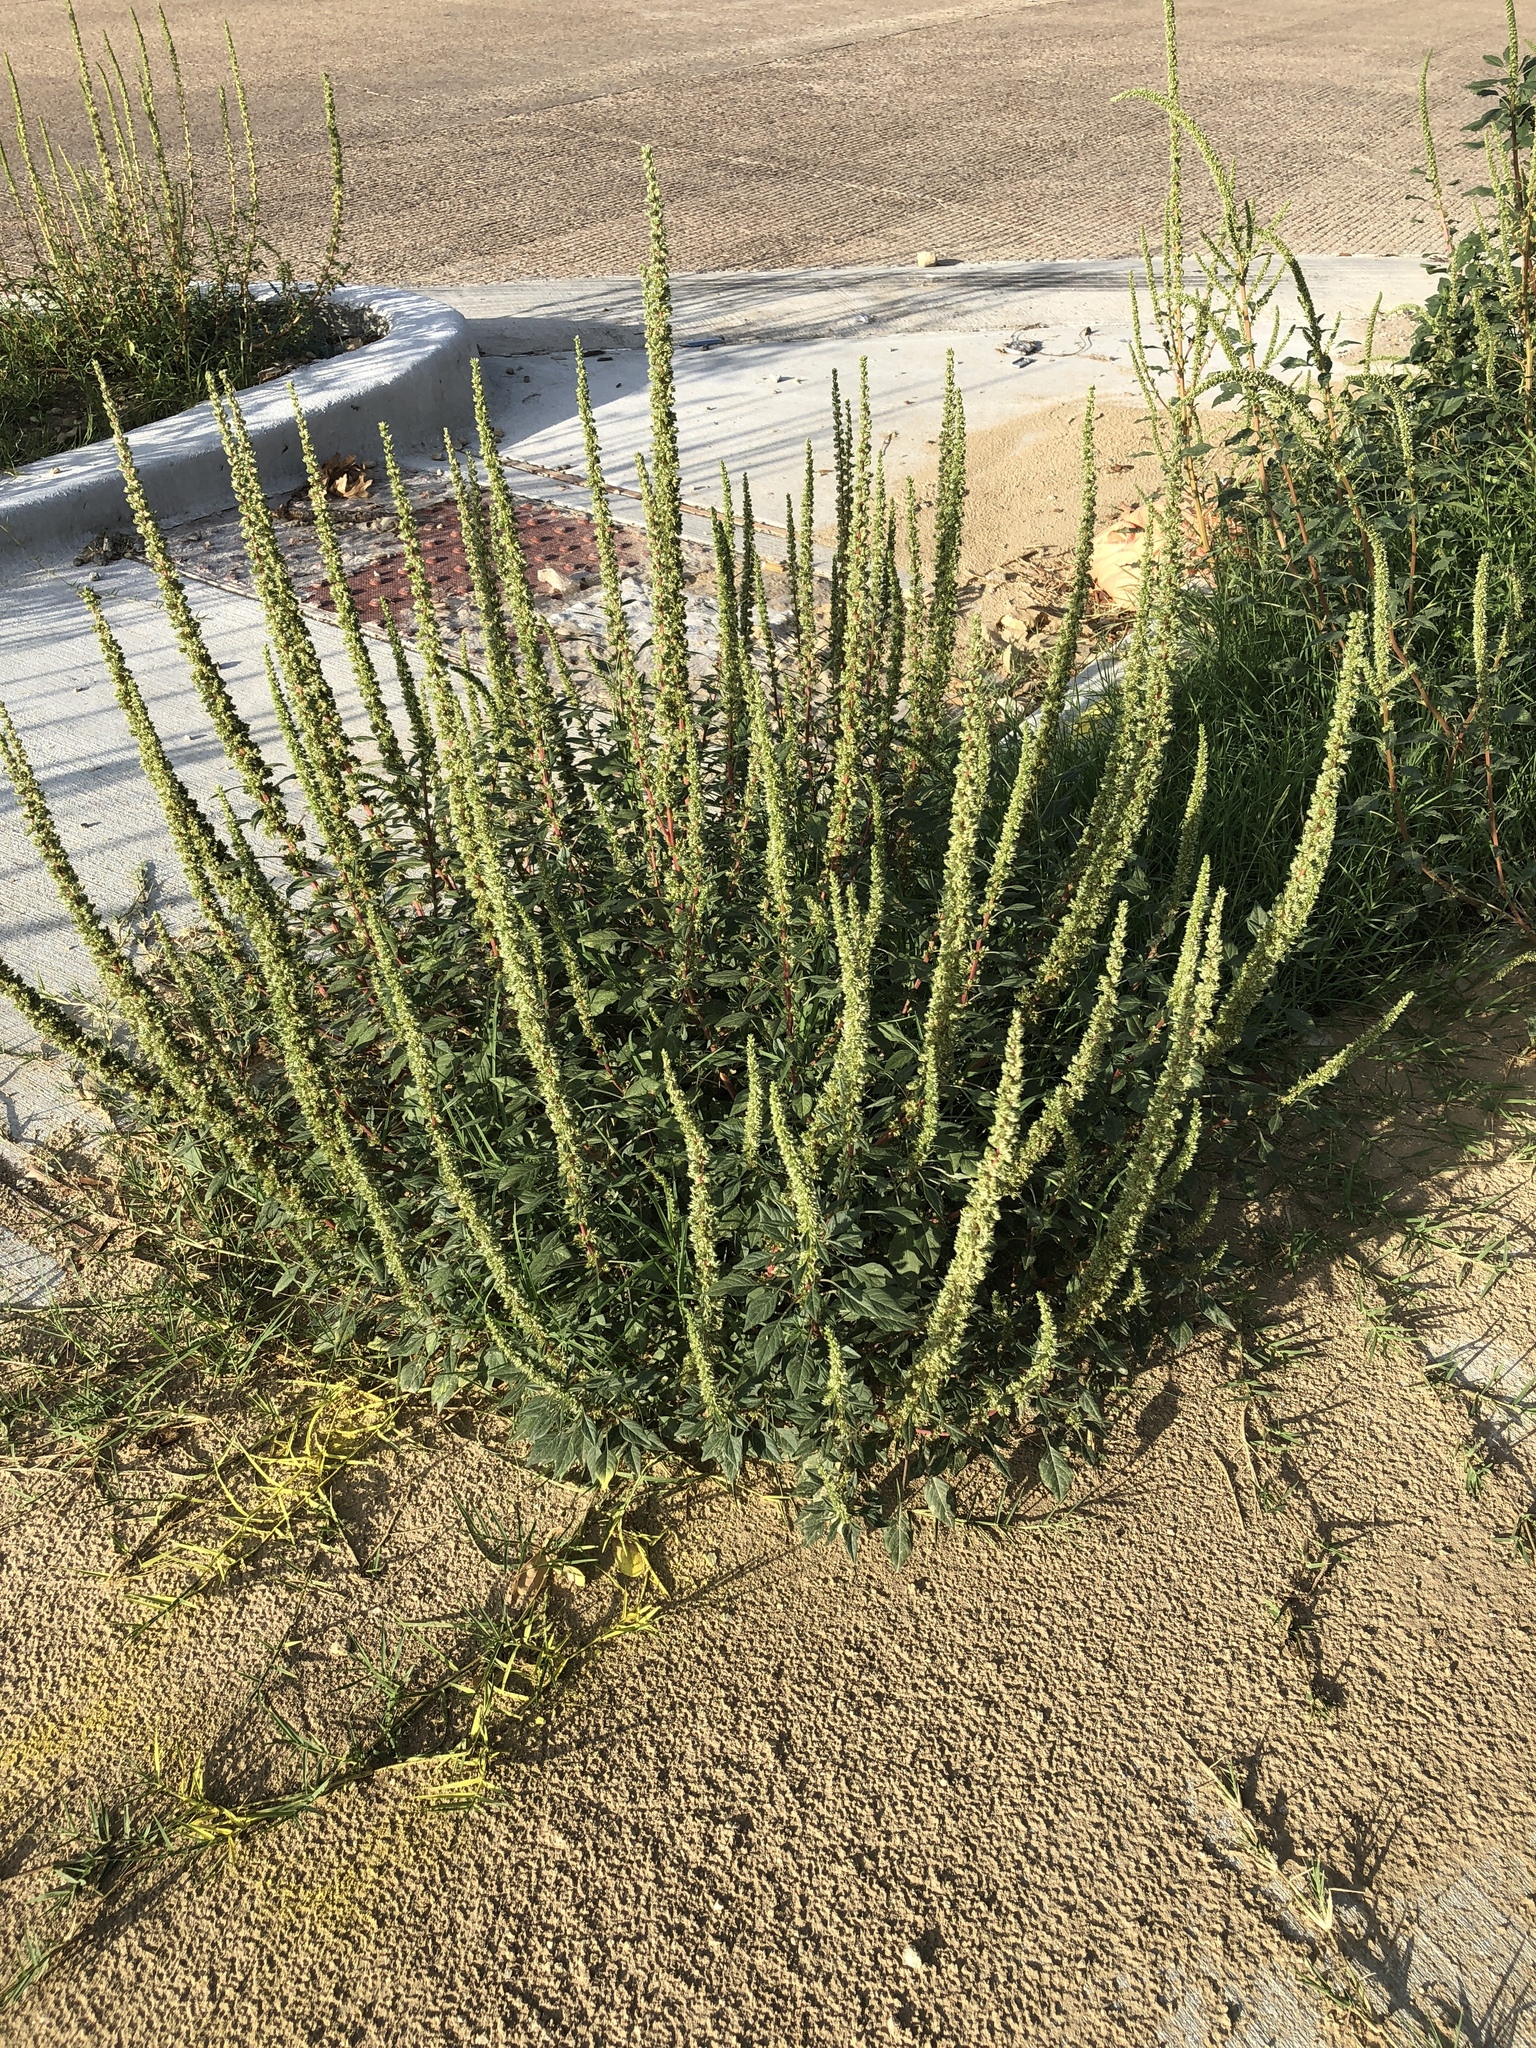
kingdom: Plantae
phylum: Tracheophyta
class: Magnoliopsida
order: Caryophyllales
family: Amaranthaceae
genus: Amaranthus
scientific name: Amaranthus palmeri
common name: Dioecious amaranth
